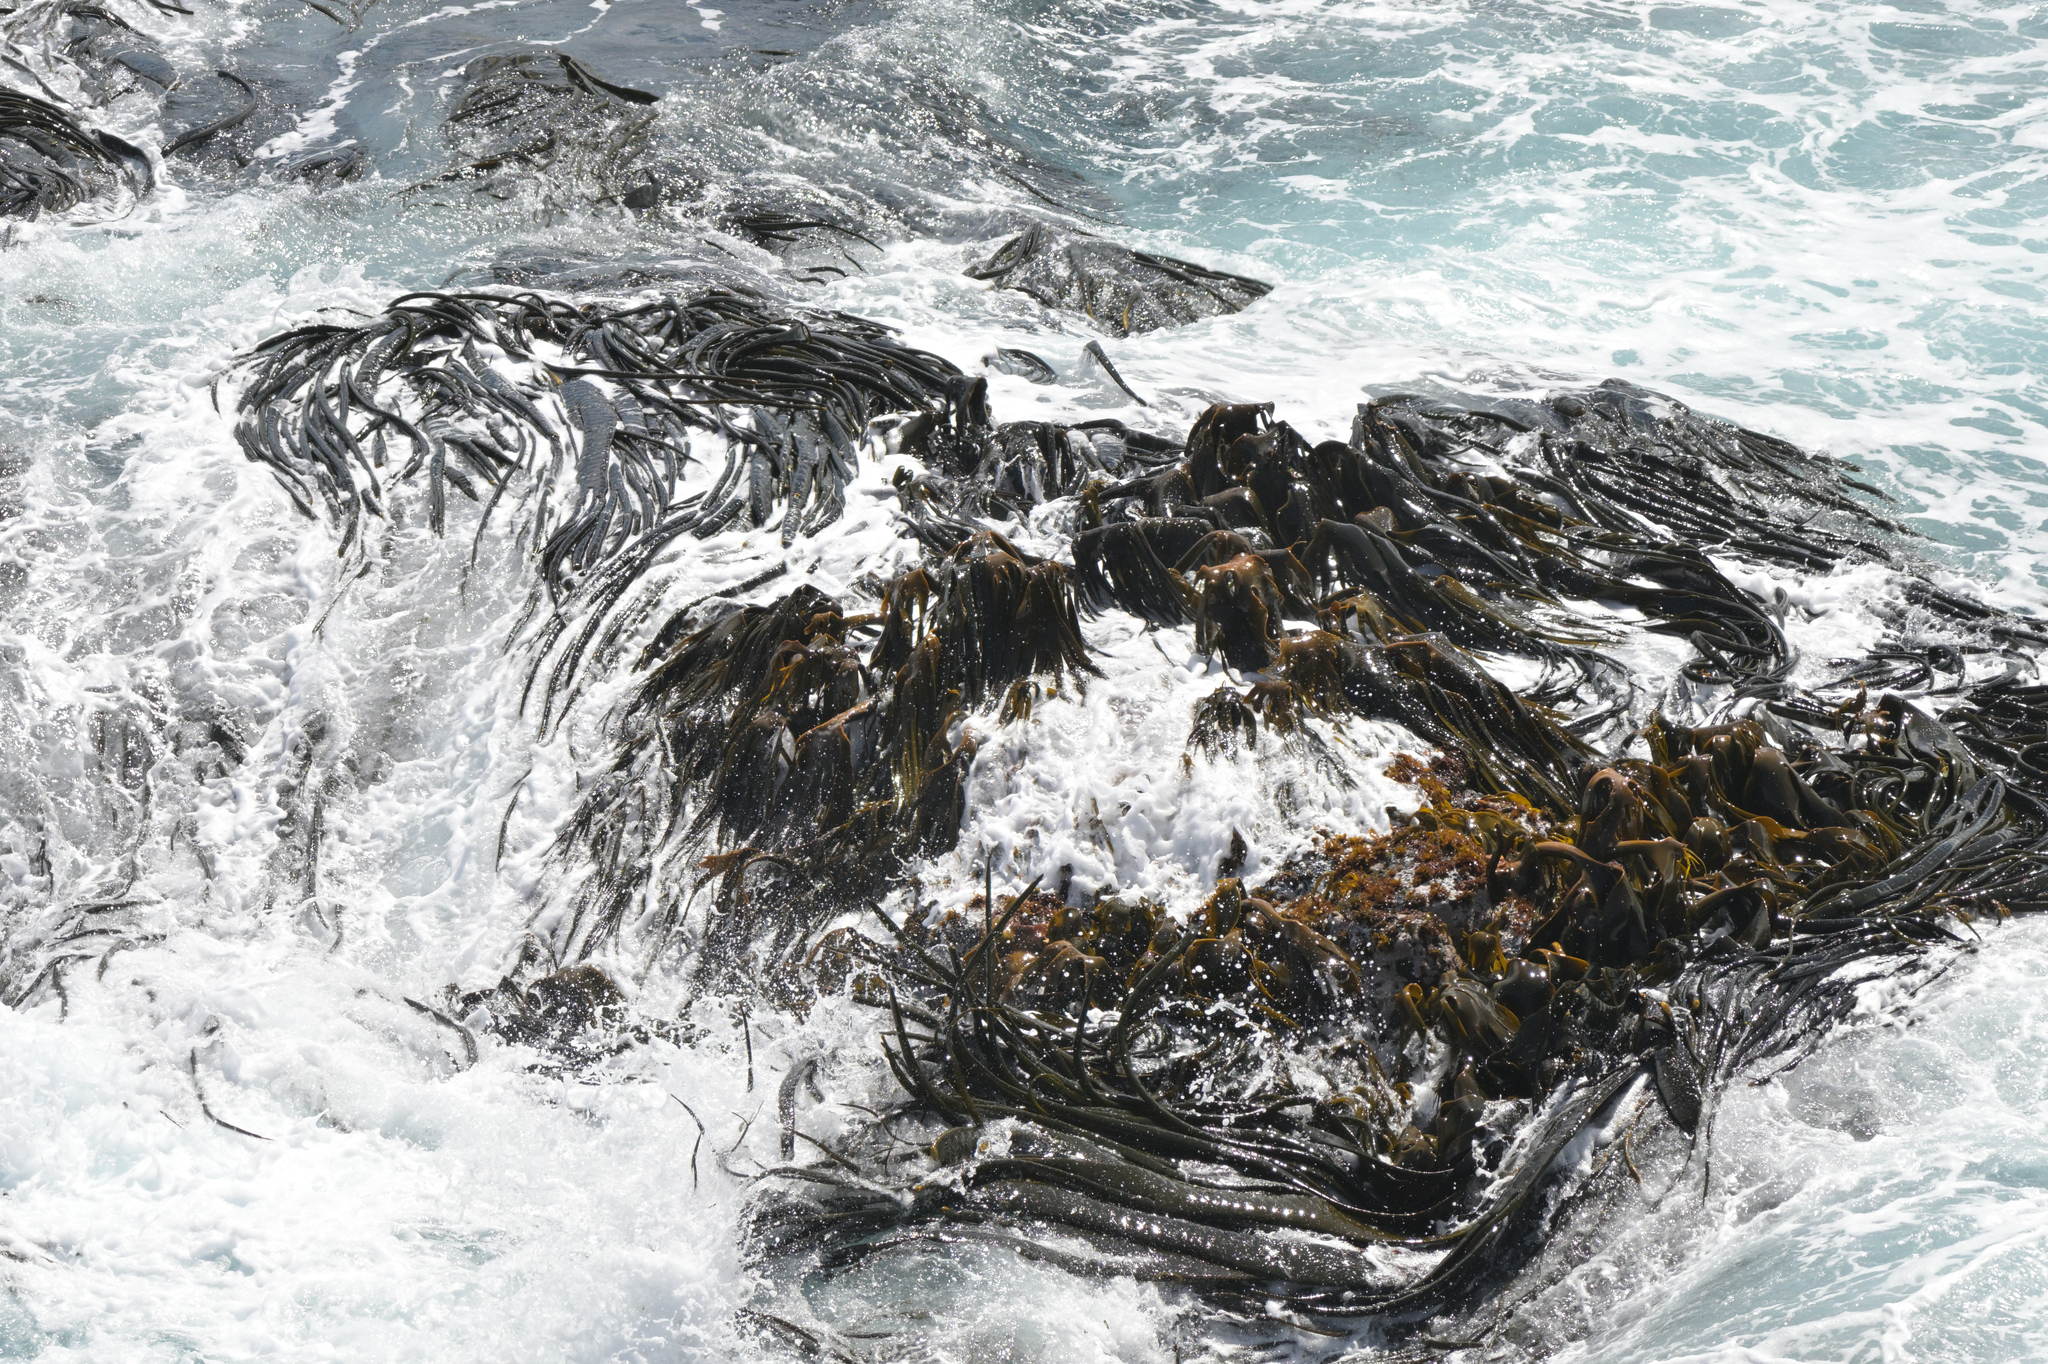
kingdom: Chromista
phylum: Ochrophyta
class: Phaeophyceae
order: Fucales
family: Durvillaeaceae
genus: Durvillaea
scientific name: Durvillaea antarctica
